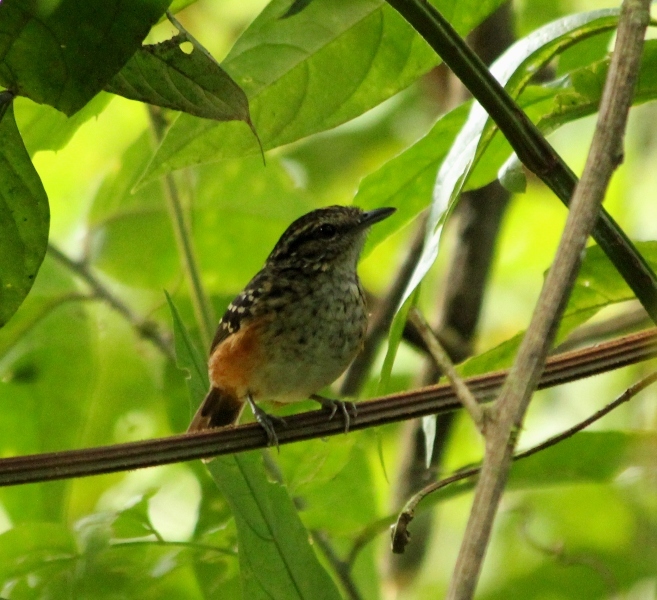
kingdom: Animalia
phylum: Chordata
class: Aves
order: Passeriformes
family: Thamnophilidae
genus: Hypocnemis
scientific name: Hypocnemis peruviana
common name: Peruvian warbling-antbird
